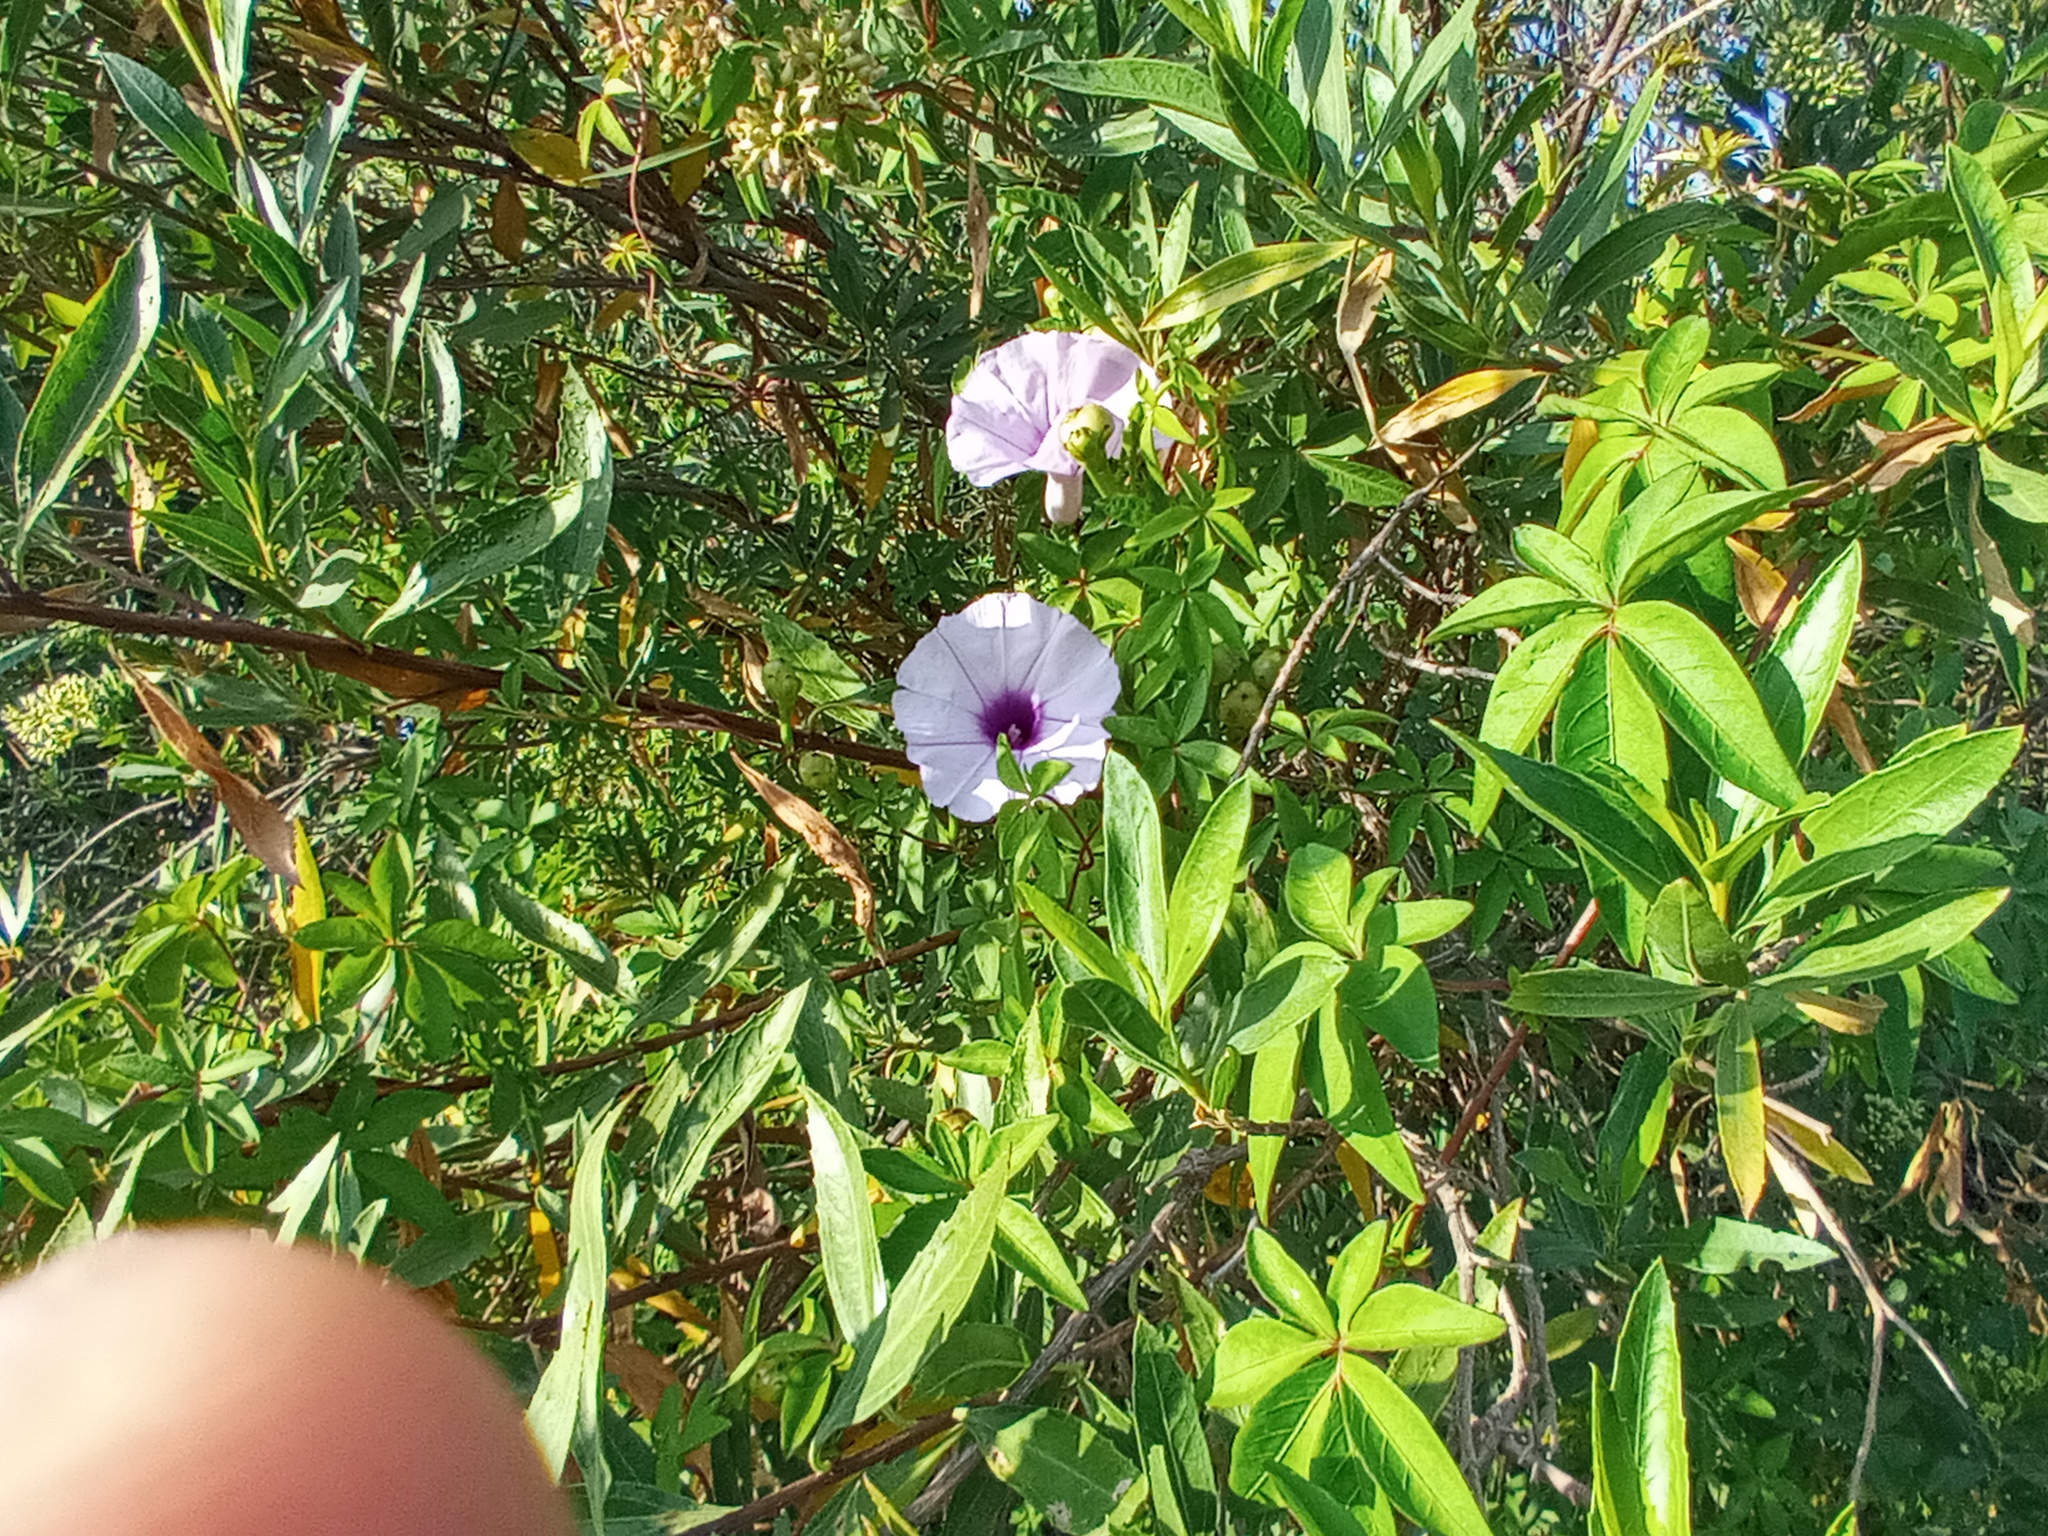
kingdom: Plantae
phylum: Tracheophyta
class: Magnoliopsida
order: Solanales
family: Convolvulaceae
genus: Ipomoea
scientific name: Ipomoea cairica
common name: Mile a minute vine
